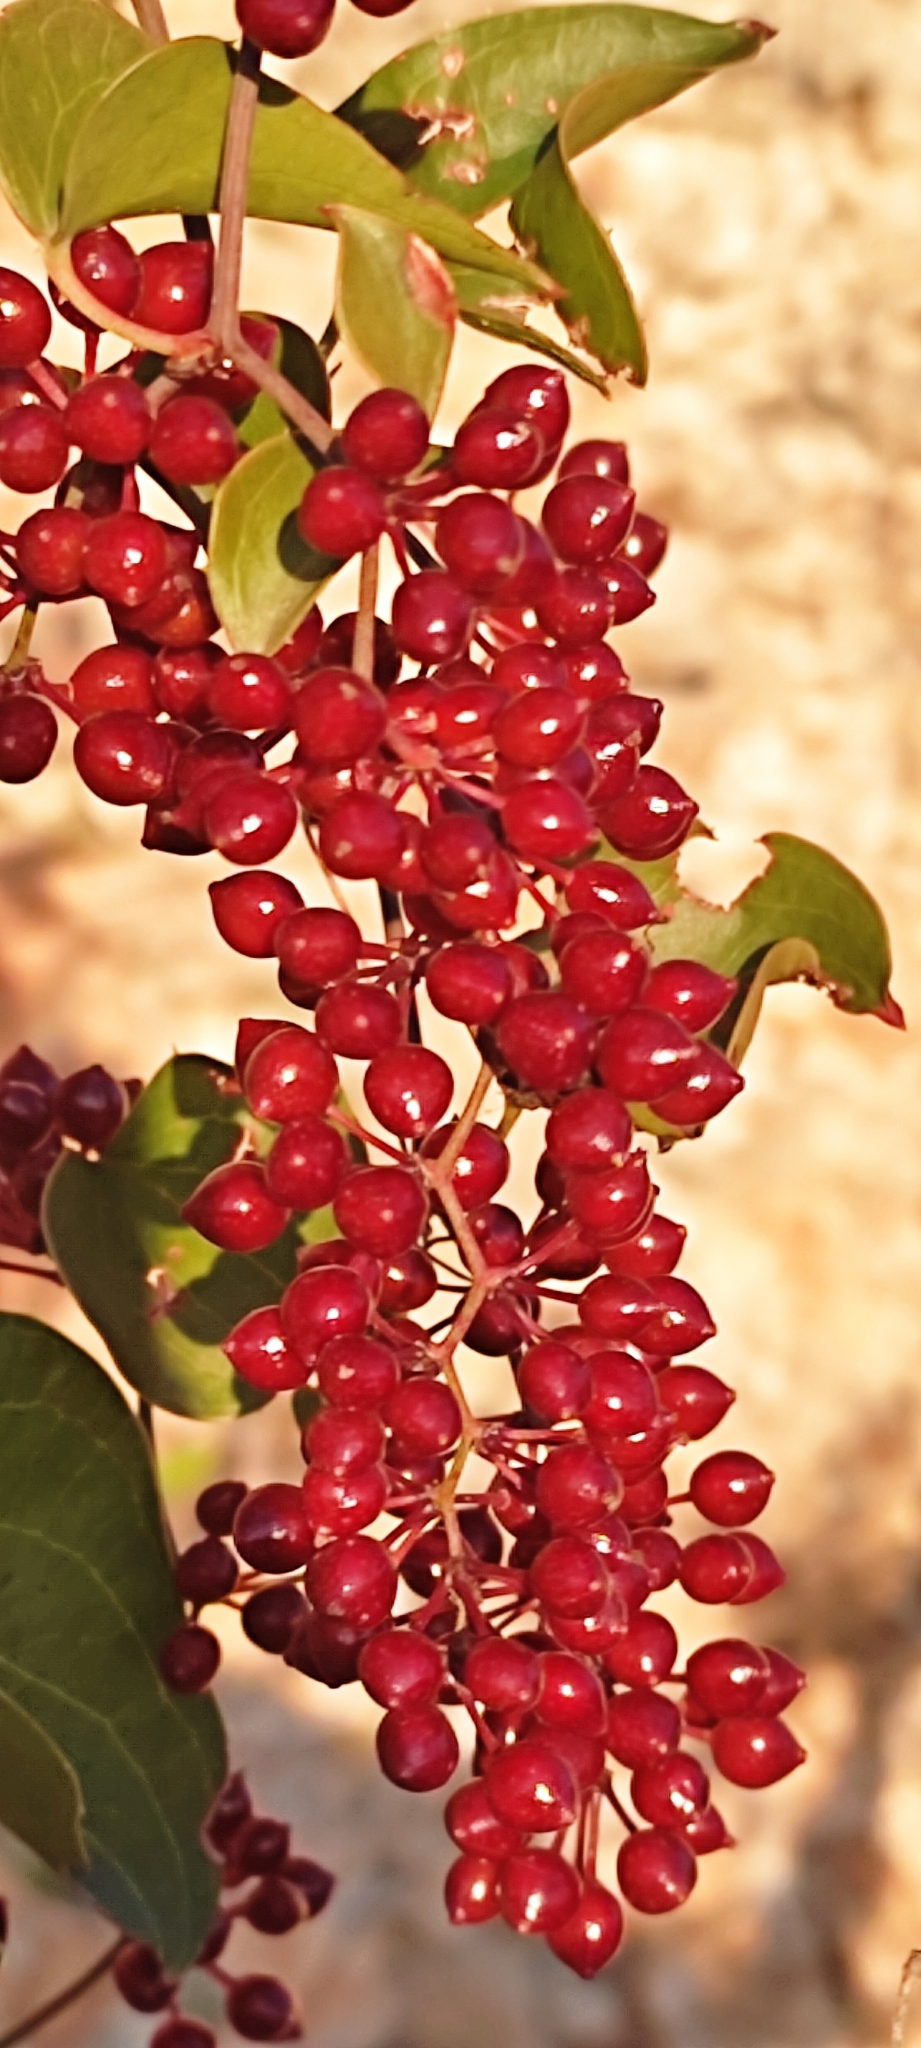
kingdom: Plantae
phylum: Tracheophyta
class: Liliopsida
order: Liliales
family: Smilacaceae
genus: Smilax
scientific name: Smilax aspera
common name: Common smilax
